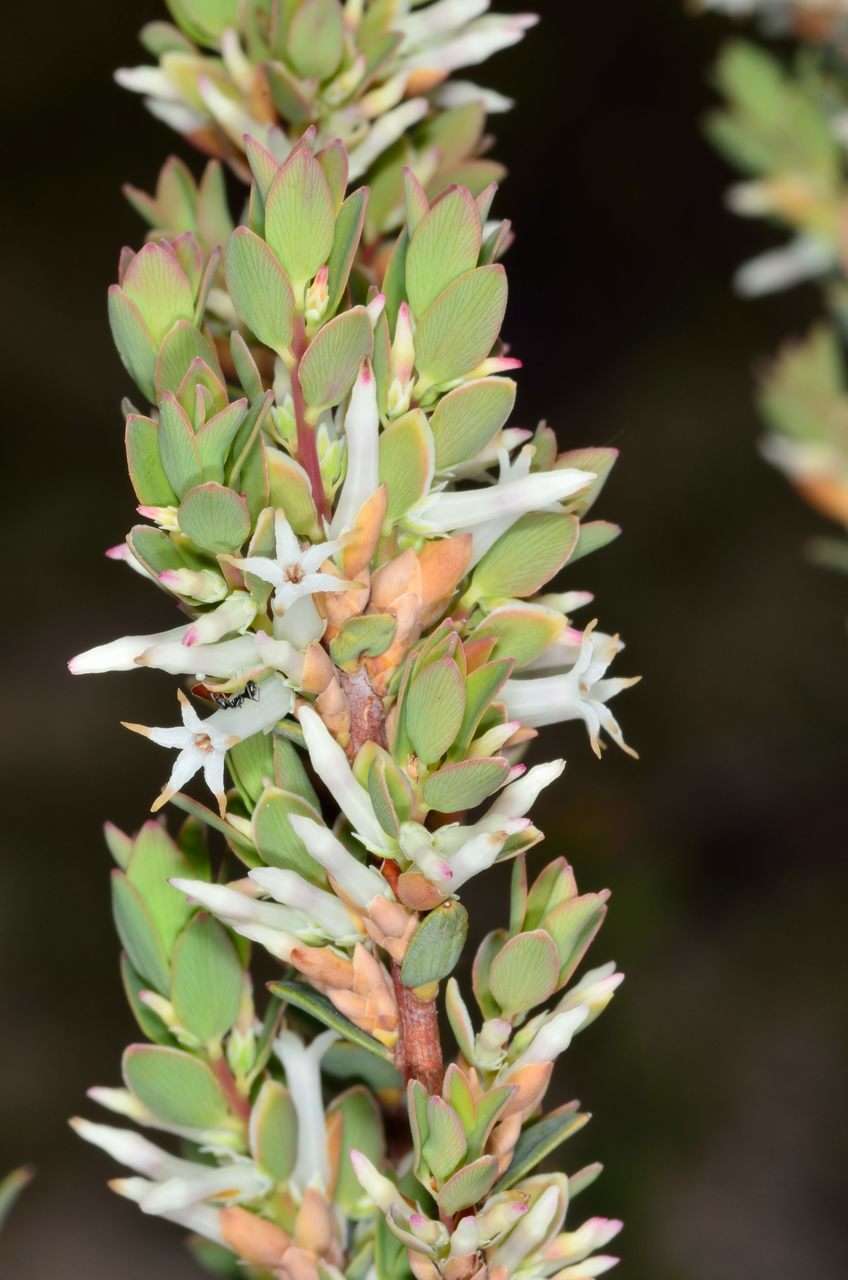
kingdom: Plantae
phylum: Tracheophyta
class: Magnoliopsida
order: Ericales
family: Ericaceae
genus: Brachyloma
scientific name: Brachyloma daphnoides
